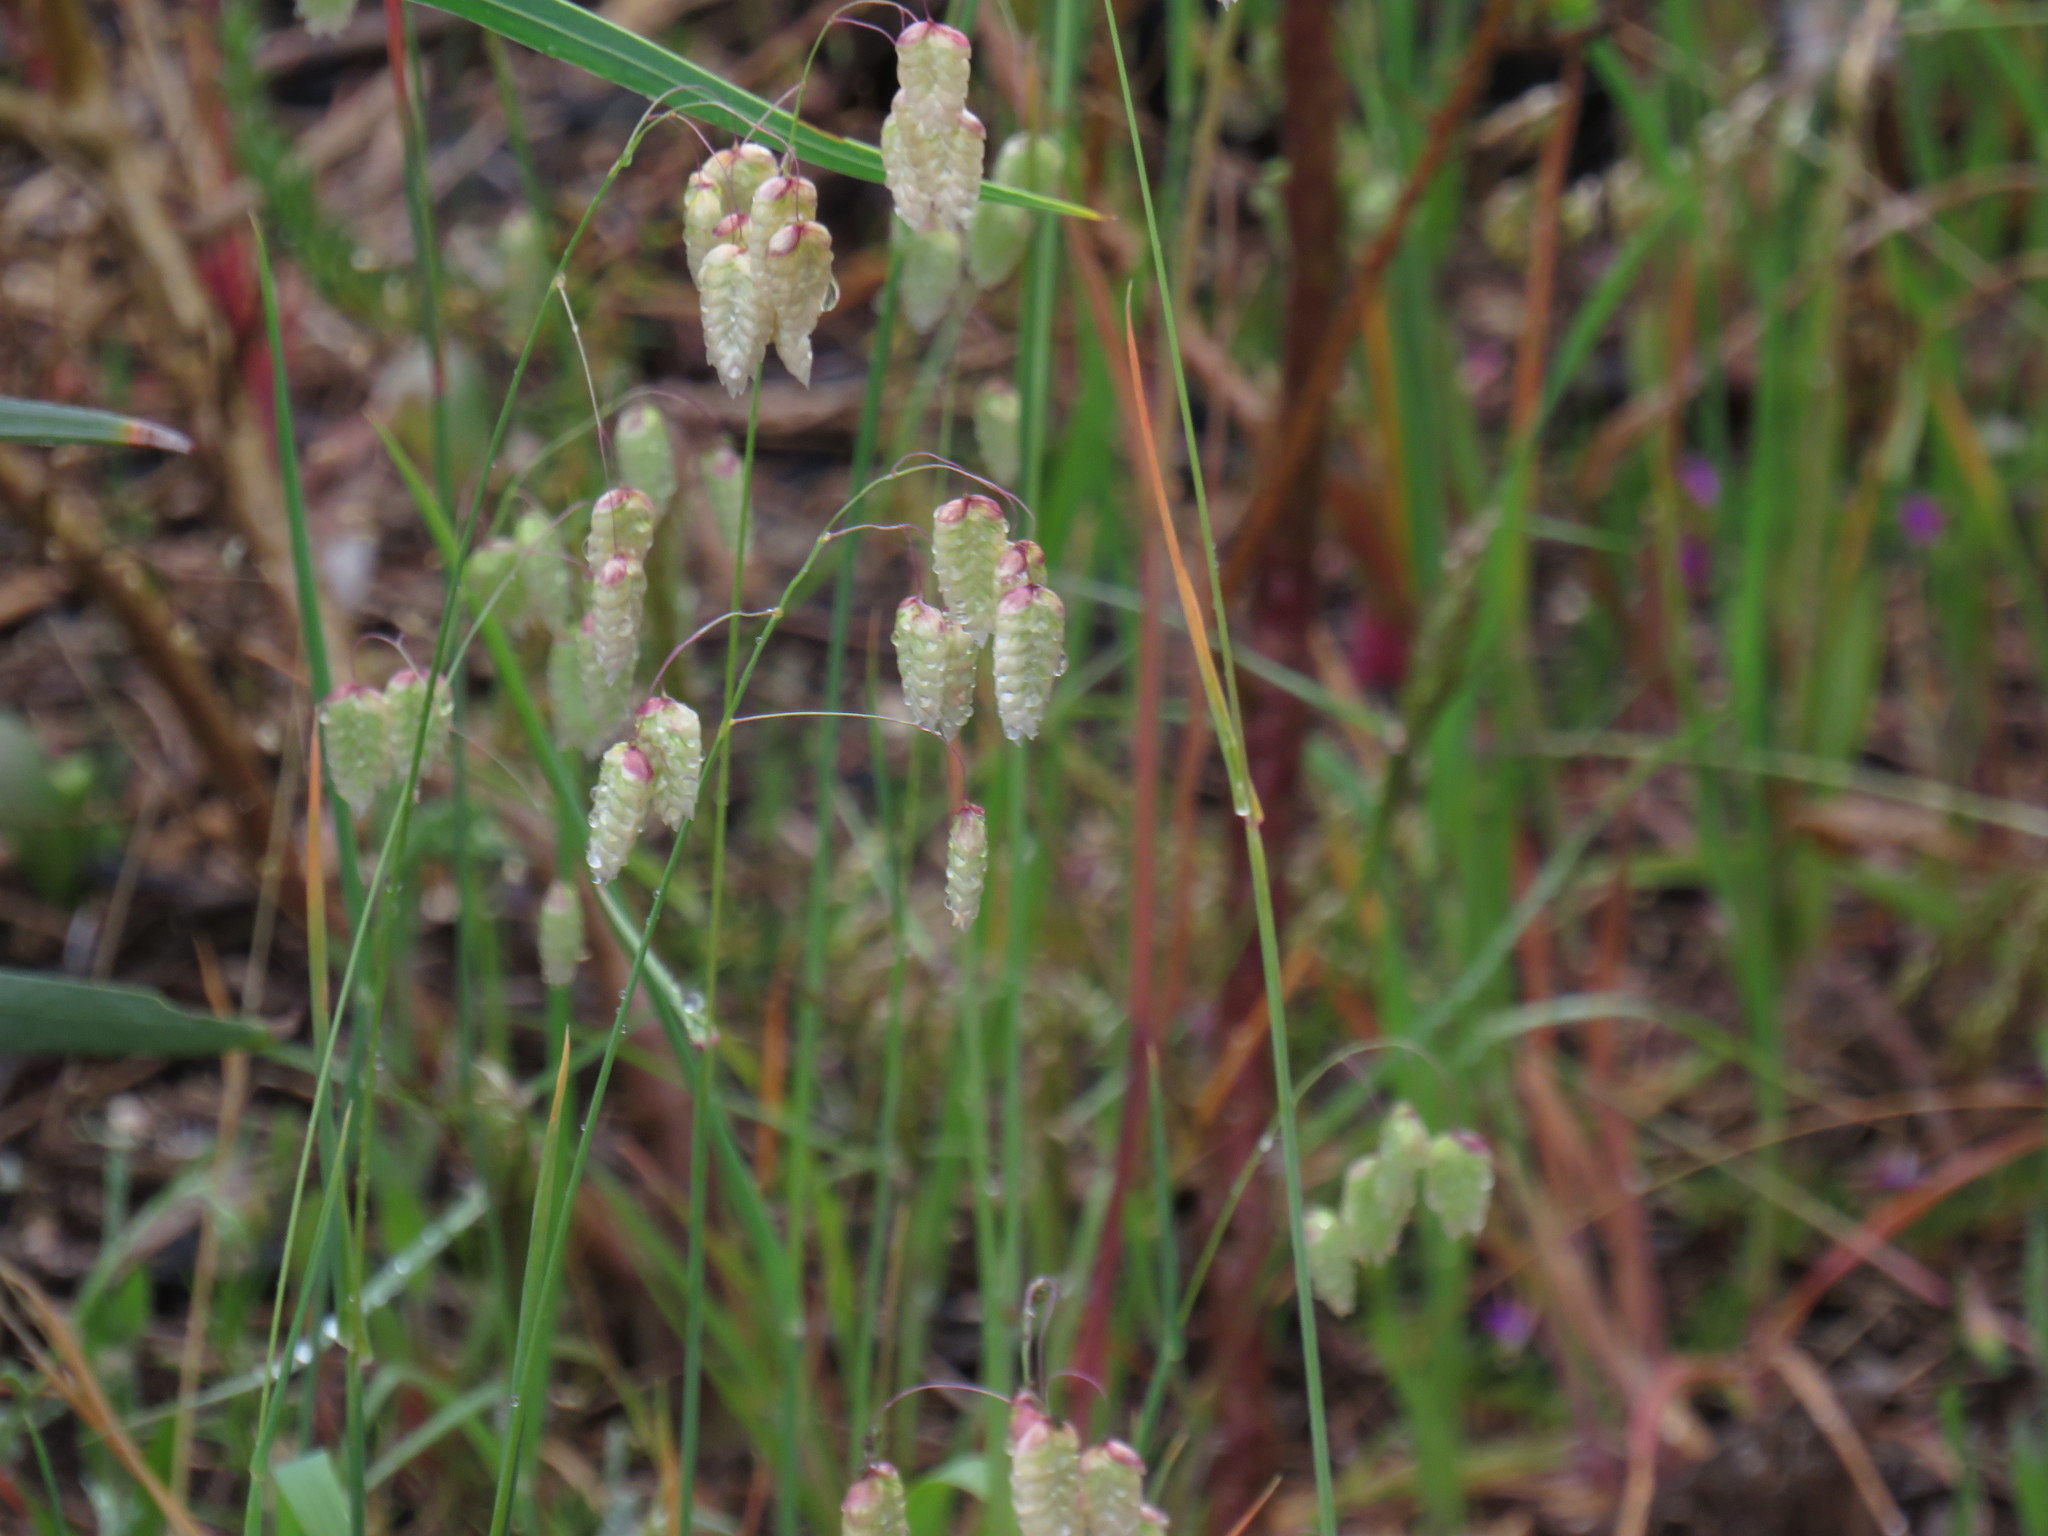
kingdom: Plantae
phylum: Tracheophyta
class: Liliopsida
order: Poales
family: Poaceae
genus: Briza
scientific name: Briza maxima
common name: Big quakinggrass
